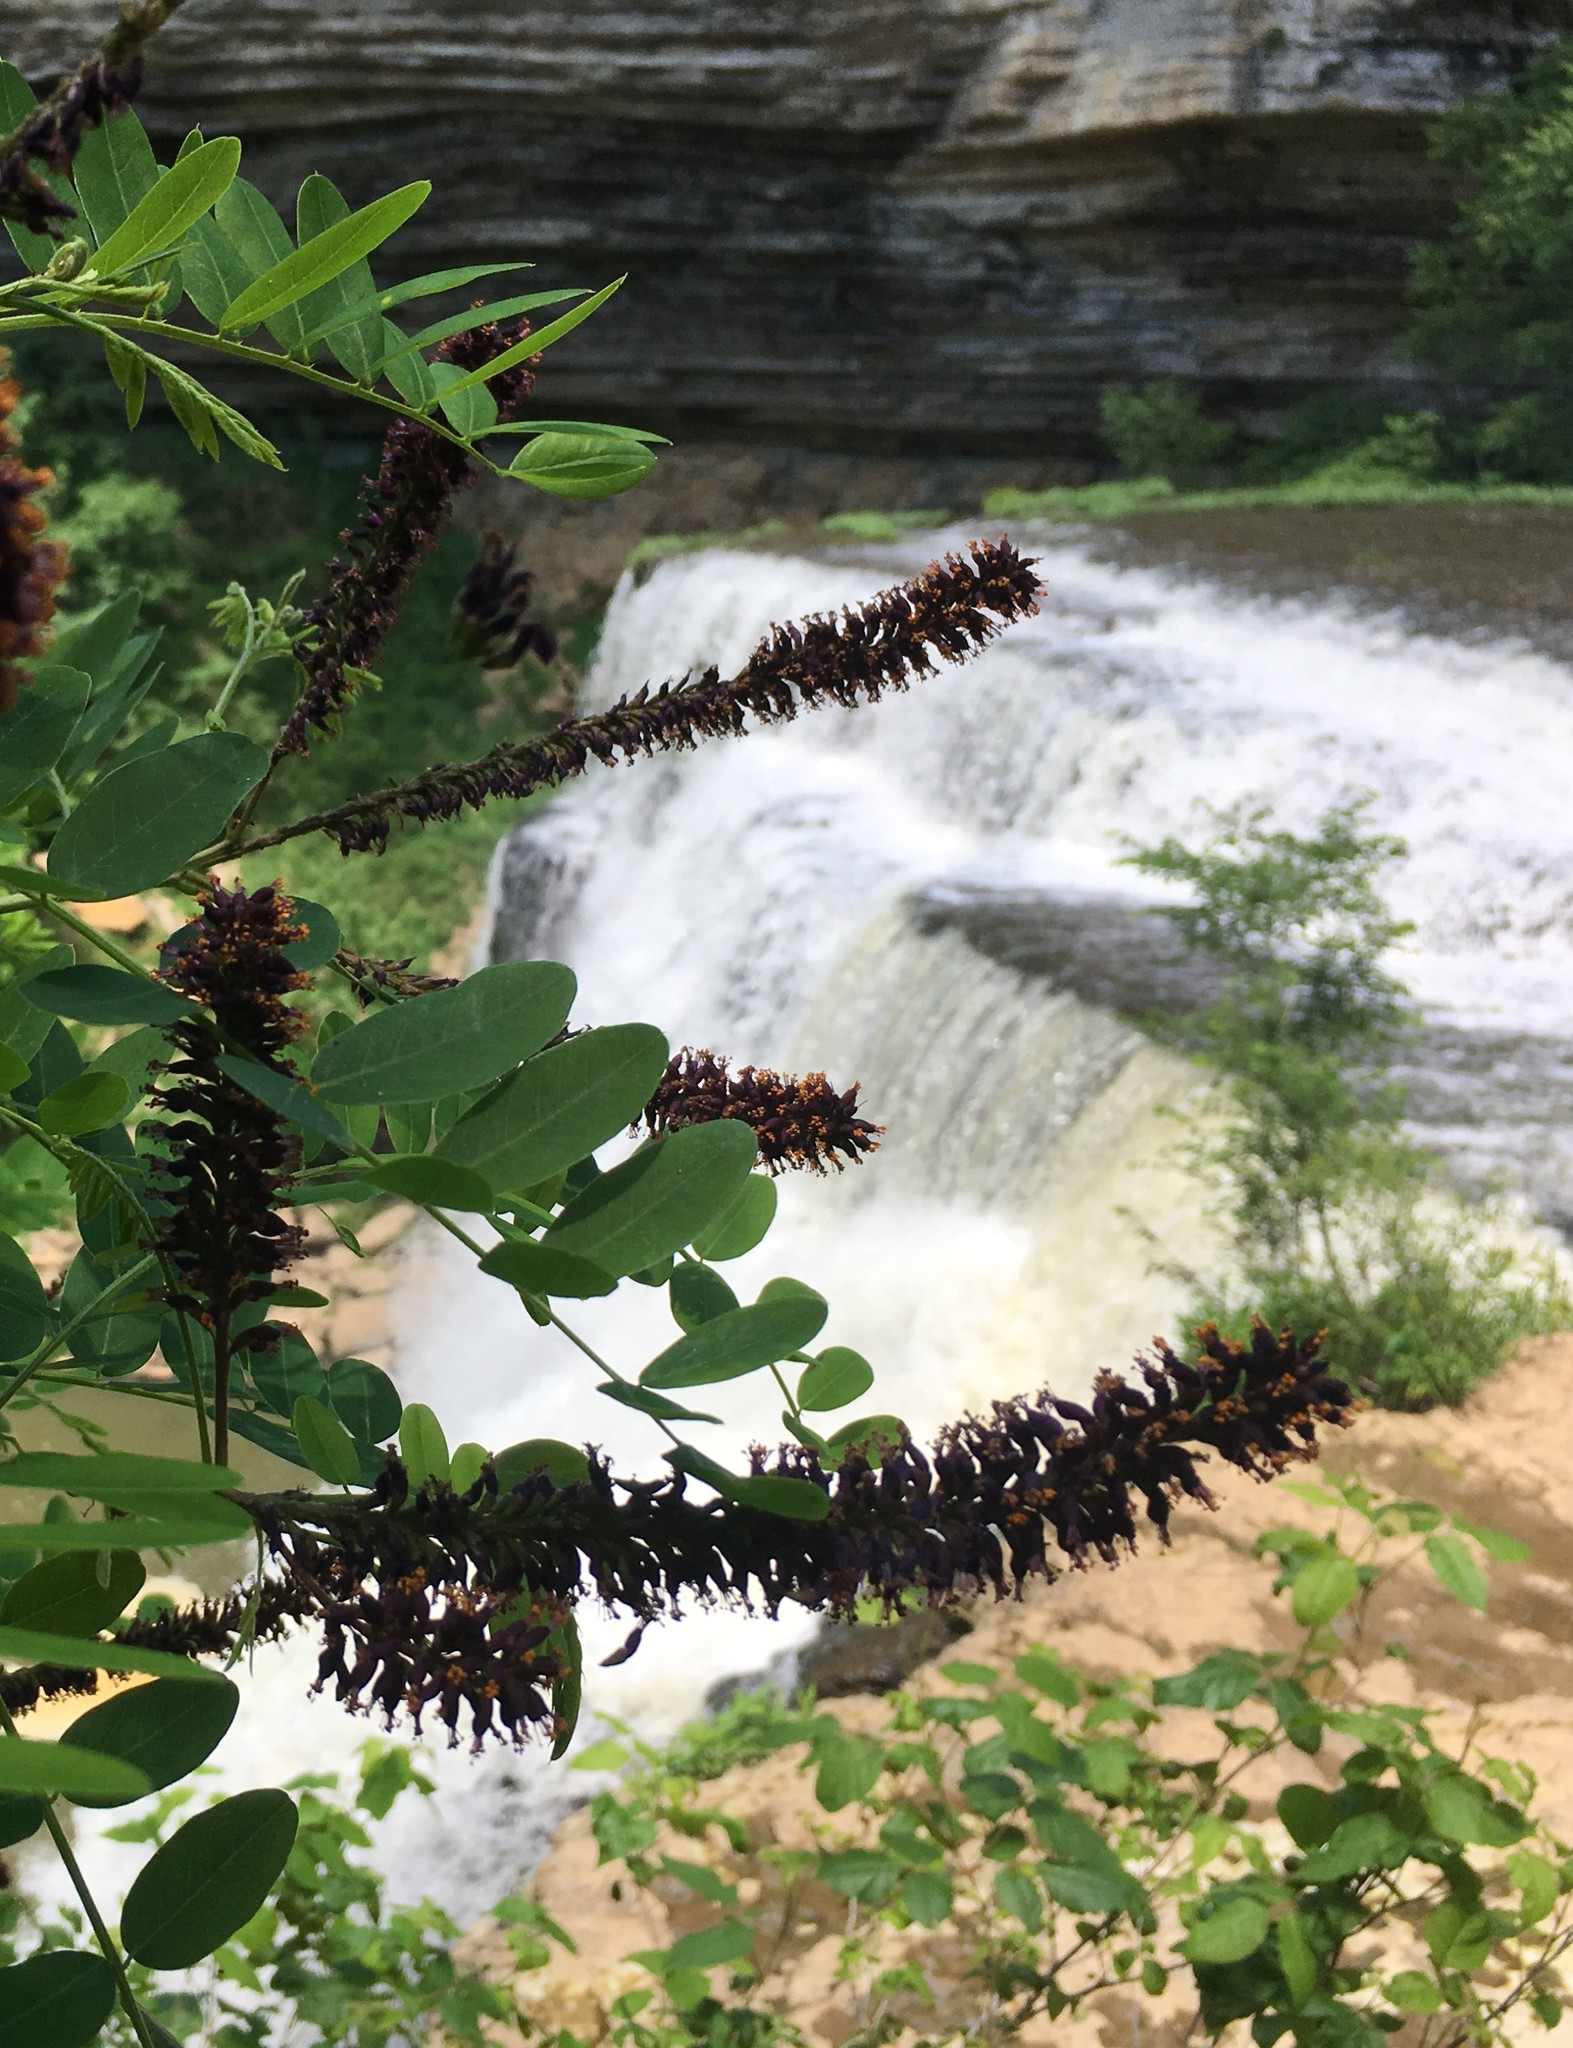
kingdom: Plantae
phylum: Tracheophyta
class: Magnoliopsida
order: Fabales
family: Fabaceae
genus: Amorpha
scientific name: Amorpha fruticosa
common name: False indigo
